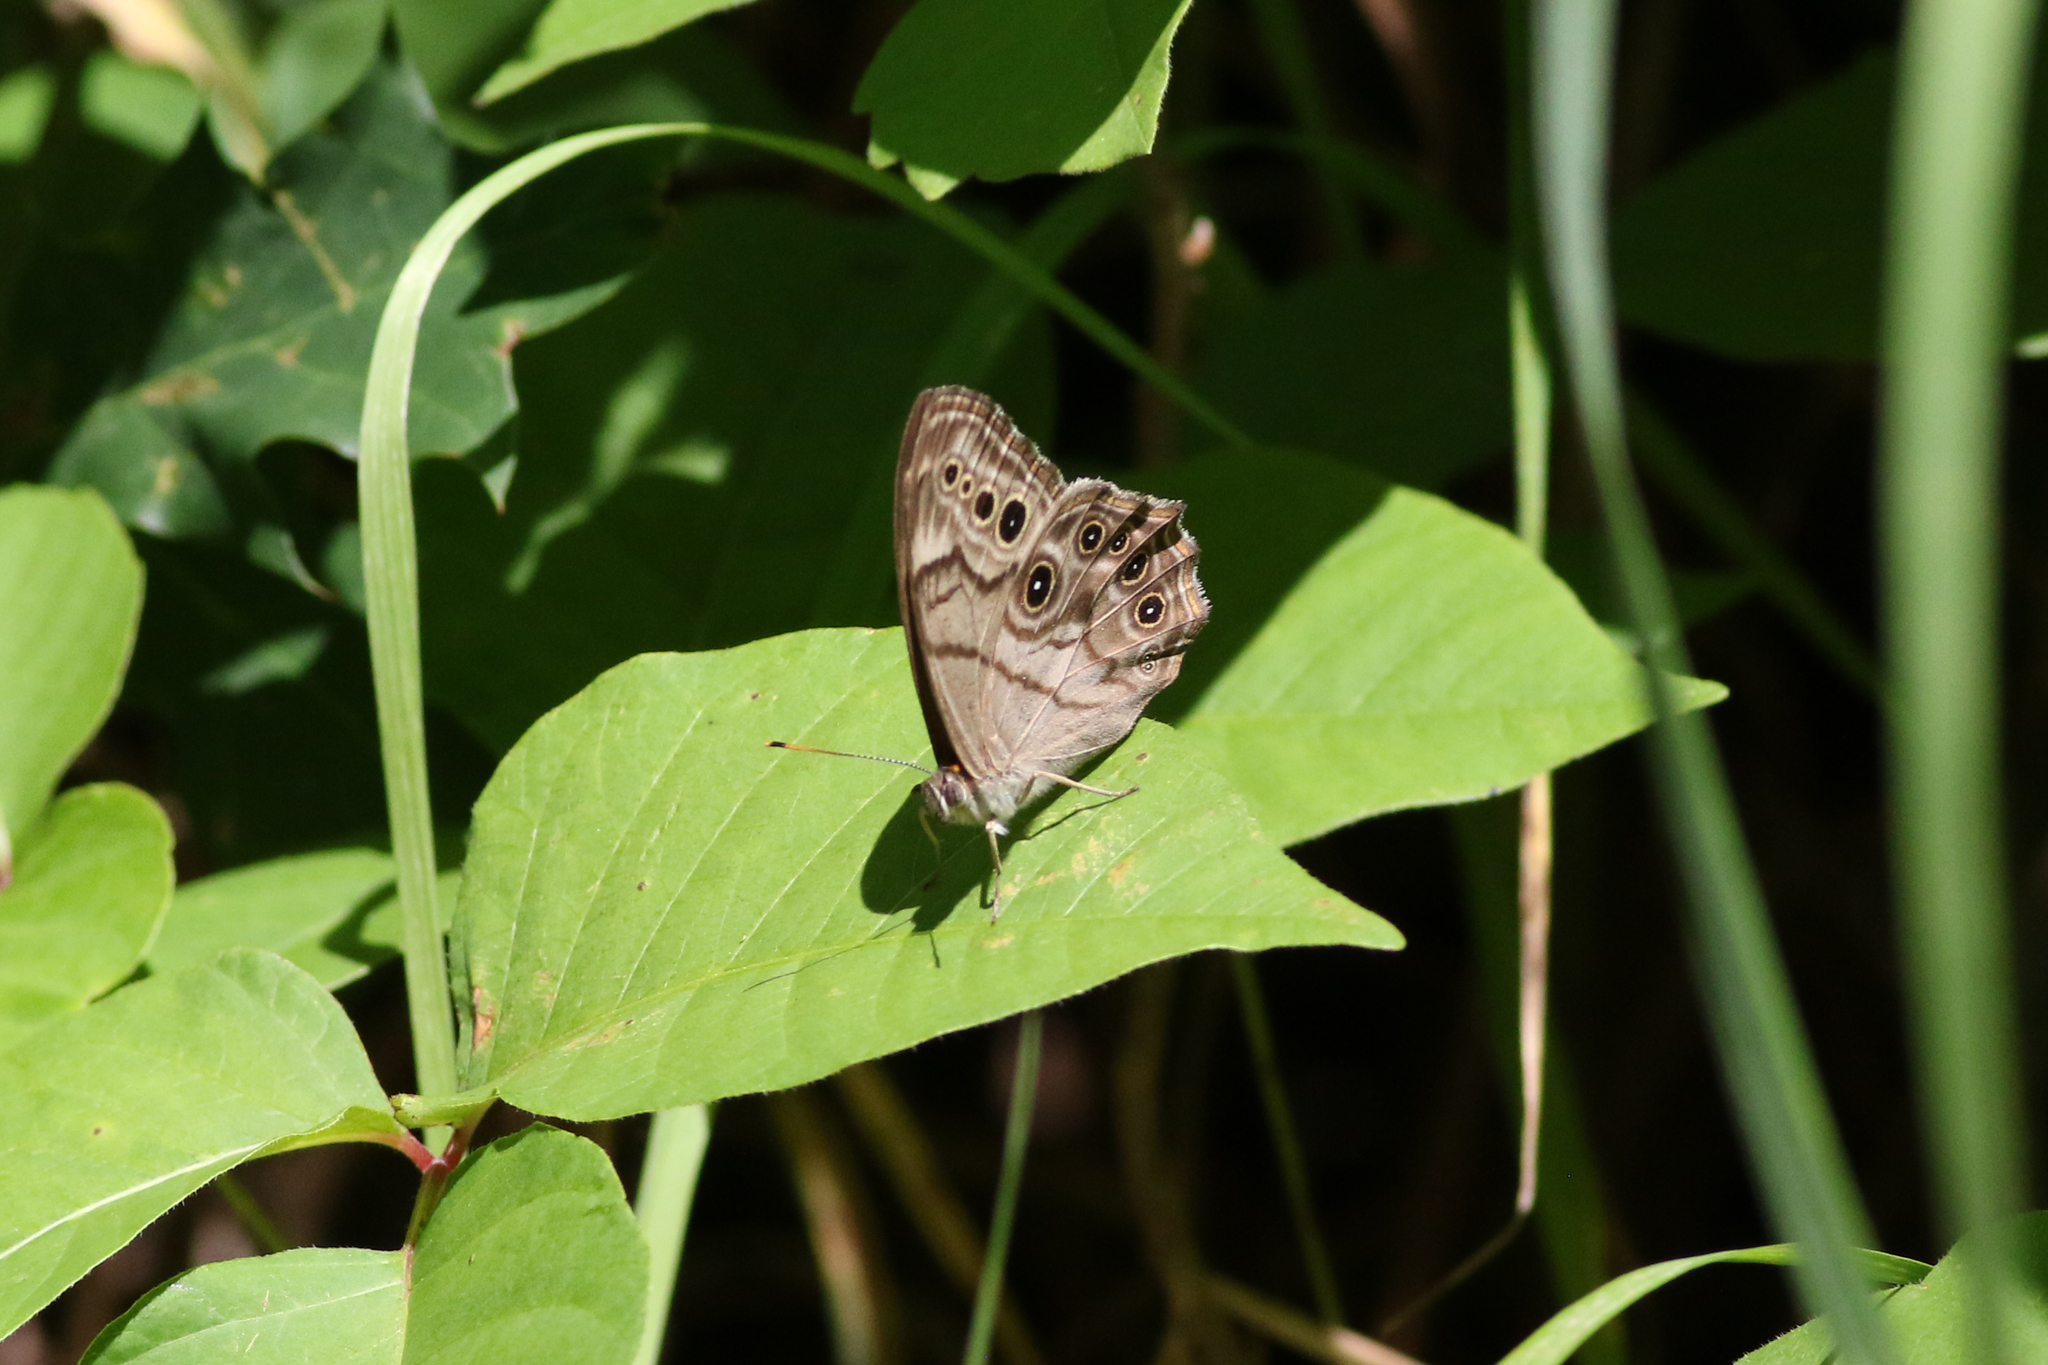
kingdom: Animalia
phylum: Arthropoda
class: Insecta
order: Lepidoptera
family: Nymphalidae
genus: Lethe
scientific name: Lethe anthedon
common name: Northern pearly-eye
